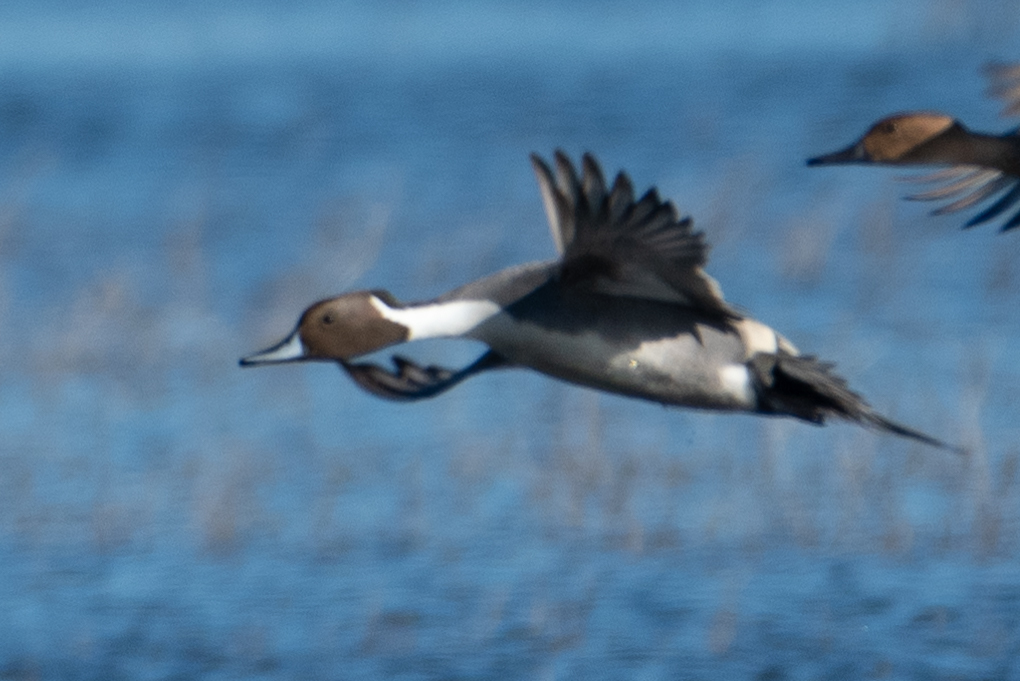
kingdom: Animalia
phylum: Chordata
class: Aves
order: Anseriformes
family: Anatidae
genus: Anas
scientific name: Anas acuta
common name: Northern pintail
